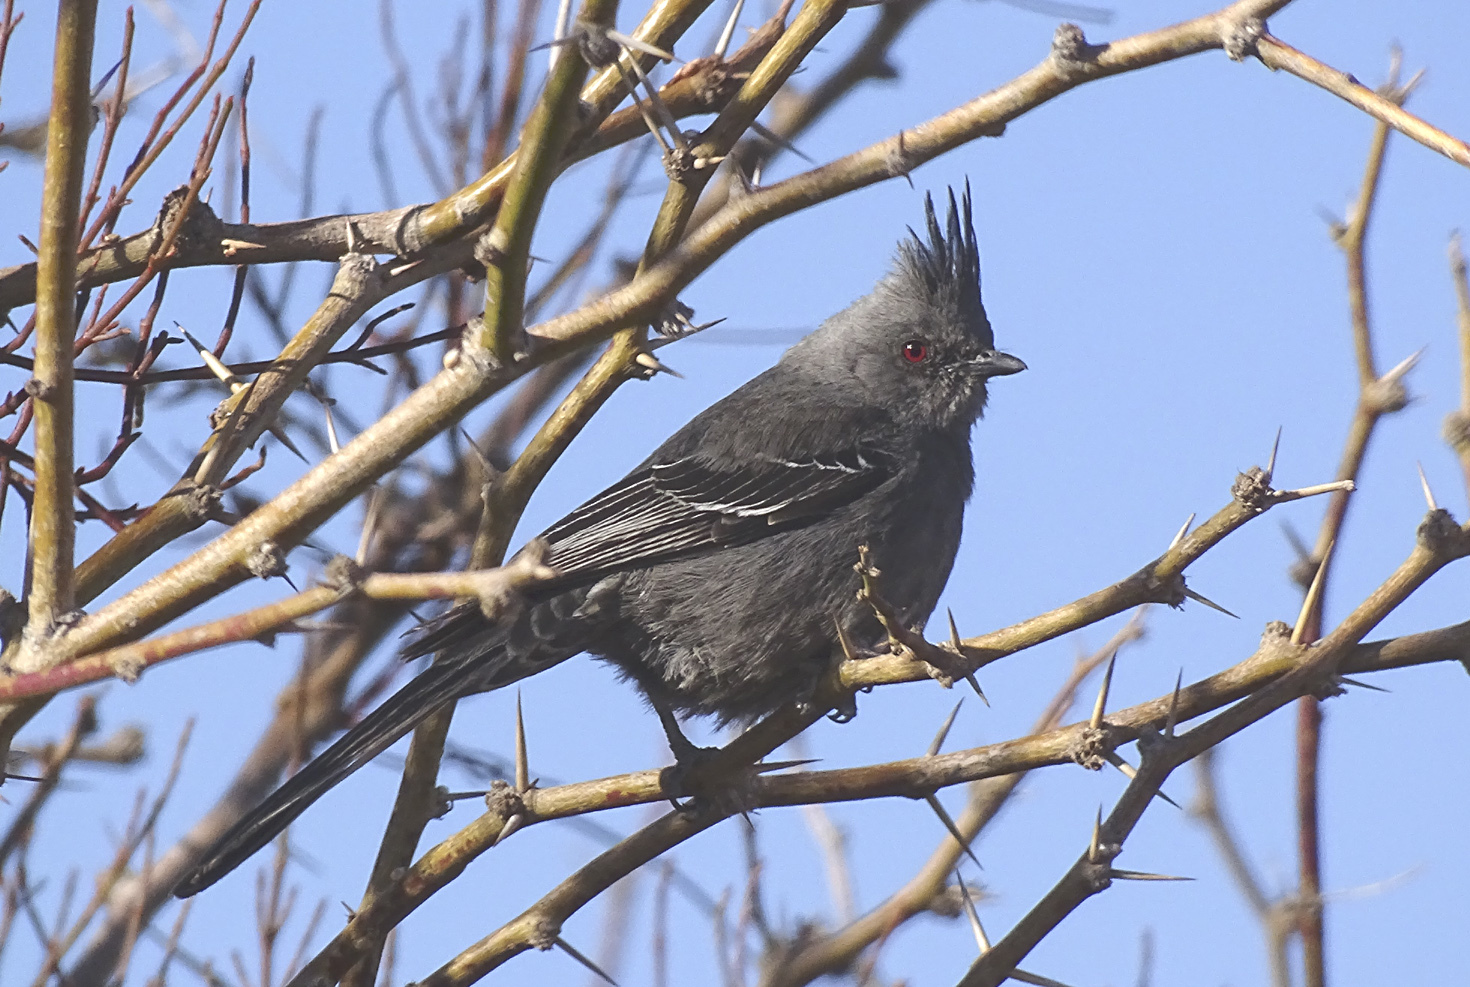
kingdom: Animalia
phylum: Chordata
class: Aves
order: Passeriformes
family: Ptilogonatidae
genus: Phainopepla
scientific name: Phainopepla nitens
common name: Phainopepla
